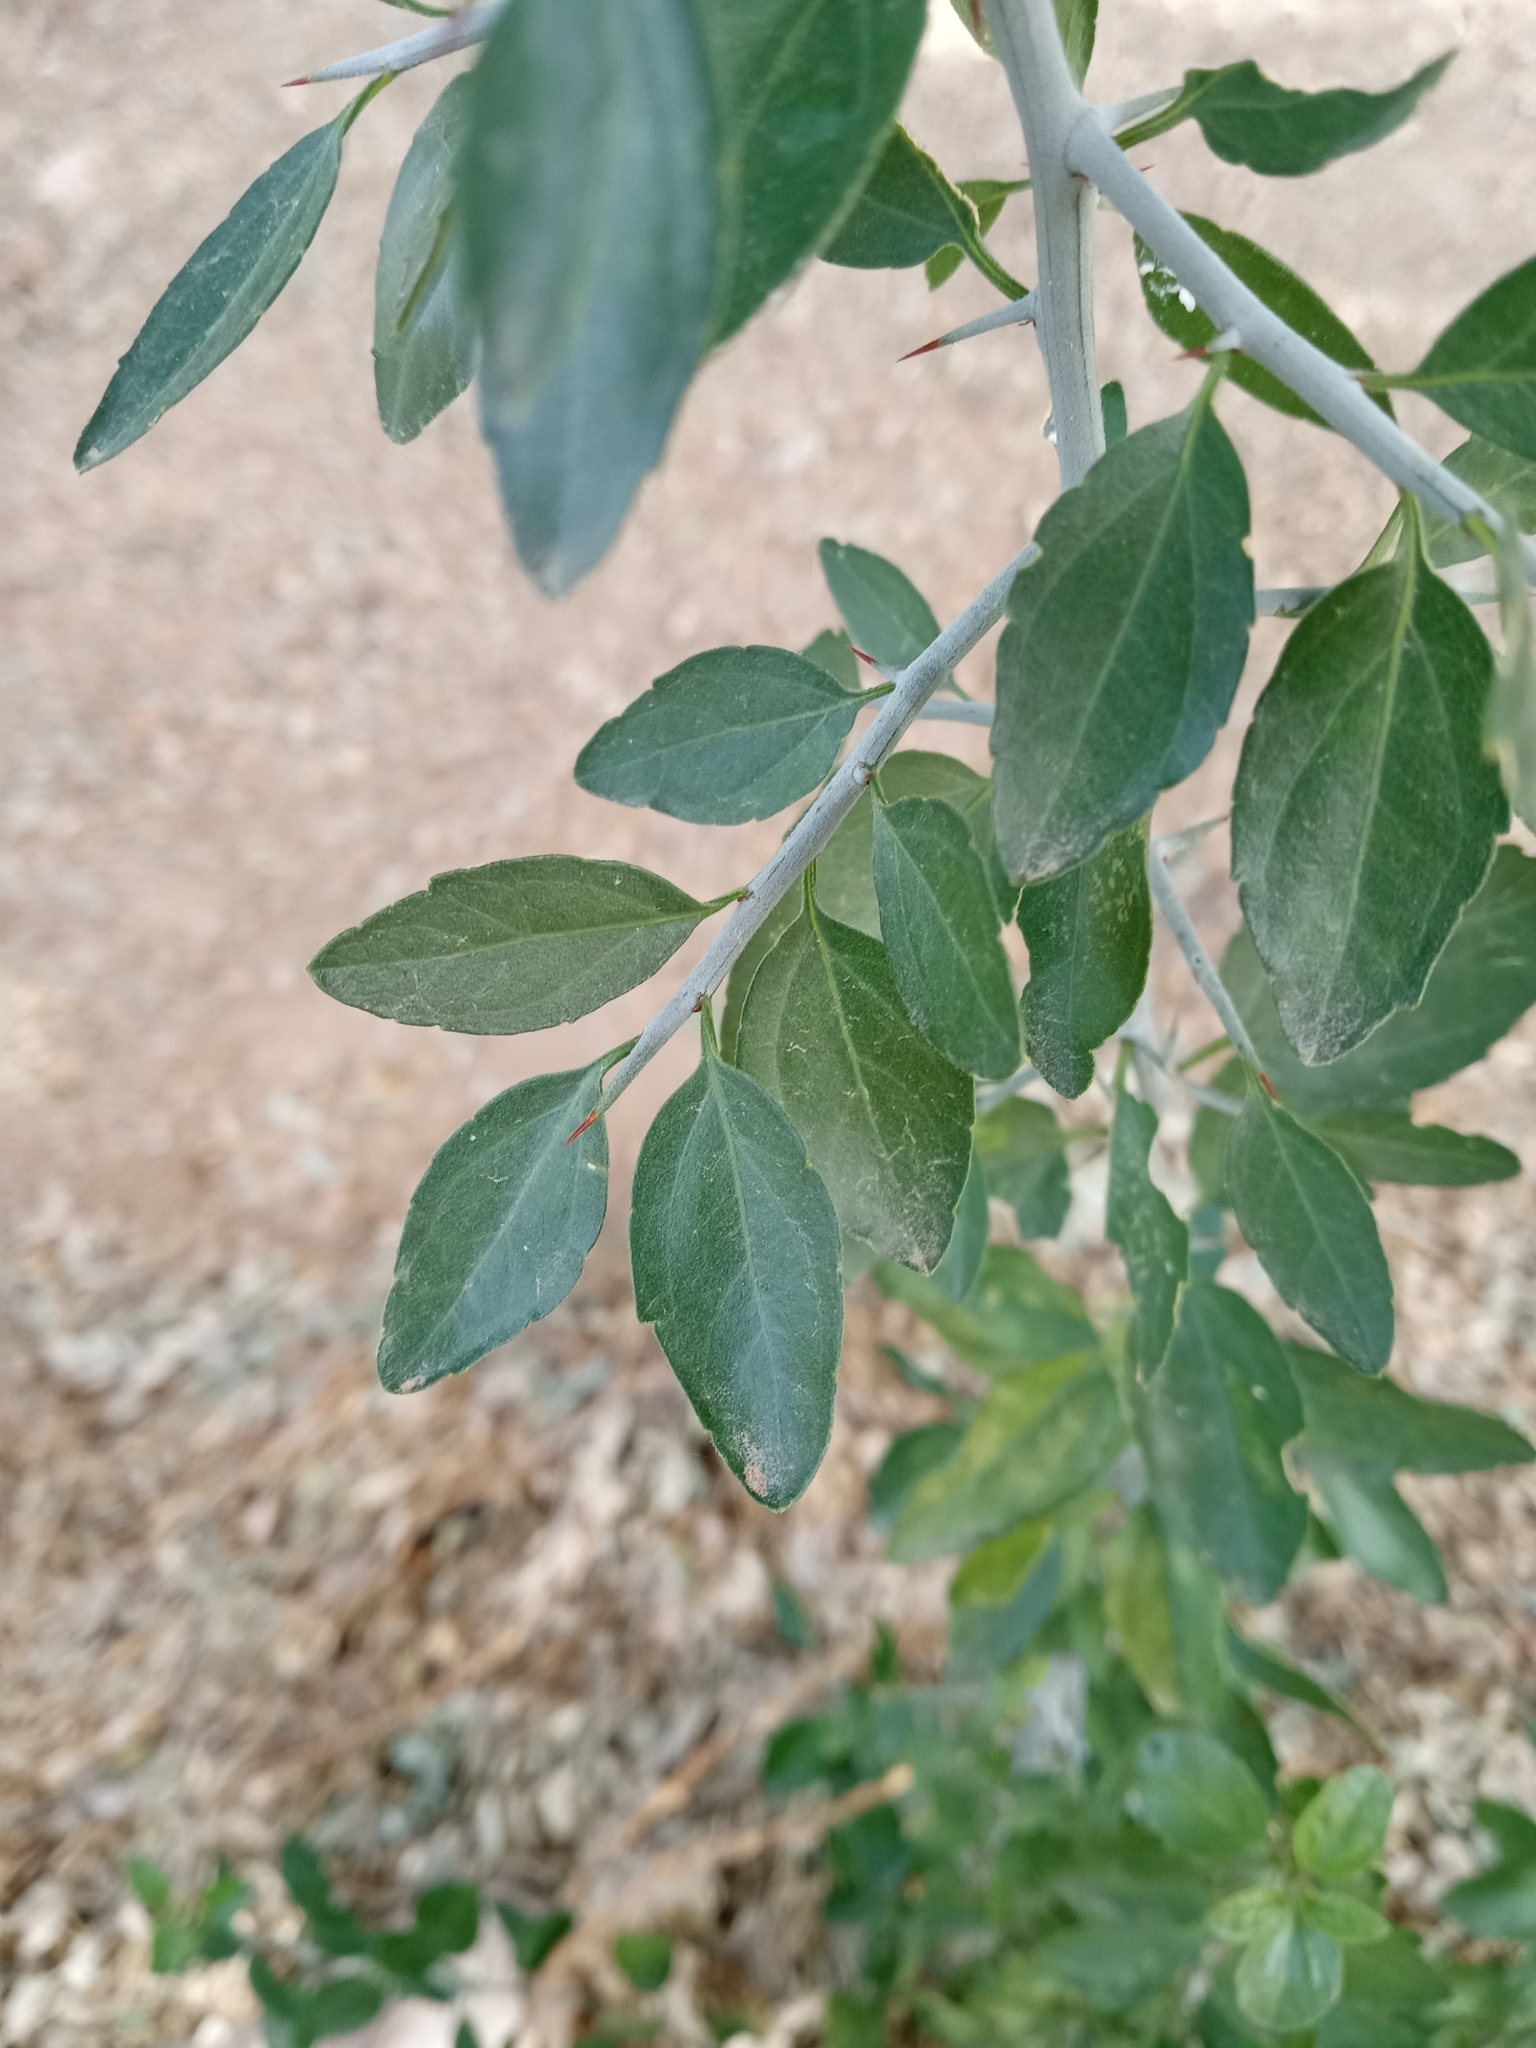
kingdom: Plantae
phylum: Tracheophyta
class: Magnoliopsida
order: Rosales
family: Cannabaceae
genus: Celtis
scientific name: Celtis pallida
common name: Desert hackberry
